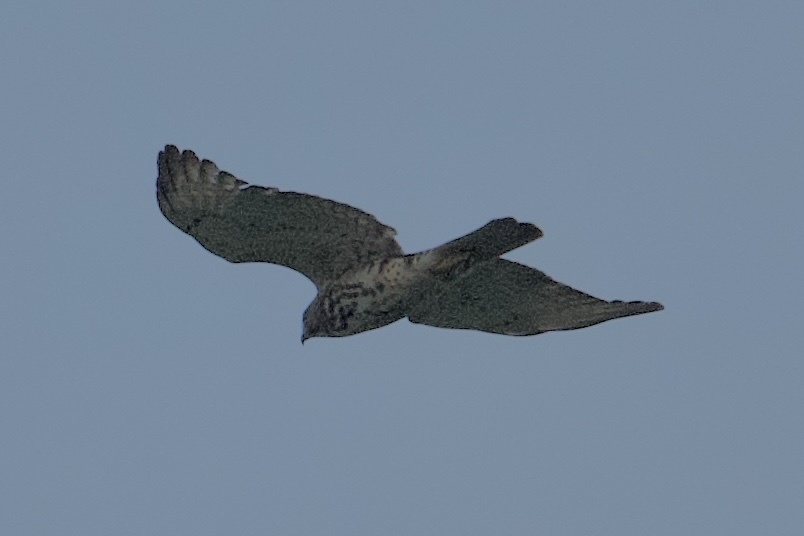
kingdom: Animalia
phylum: Chordata
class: Aves
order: Accipitriformes
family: Accipitridae
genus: Buteo
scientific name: Buteo platypterus
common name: Broad-winged hawk
